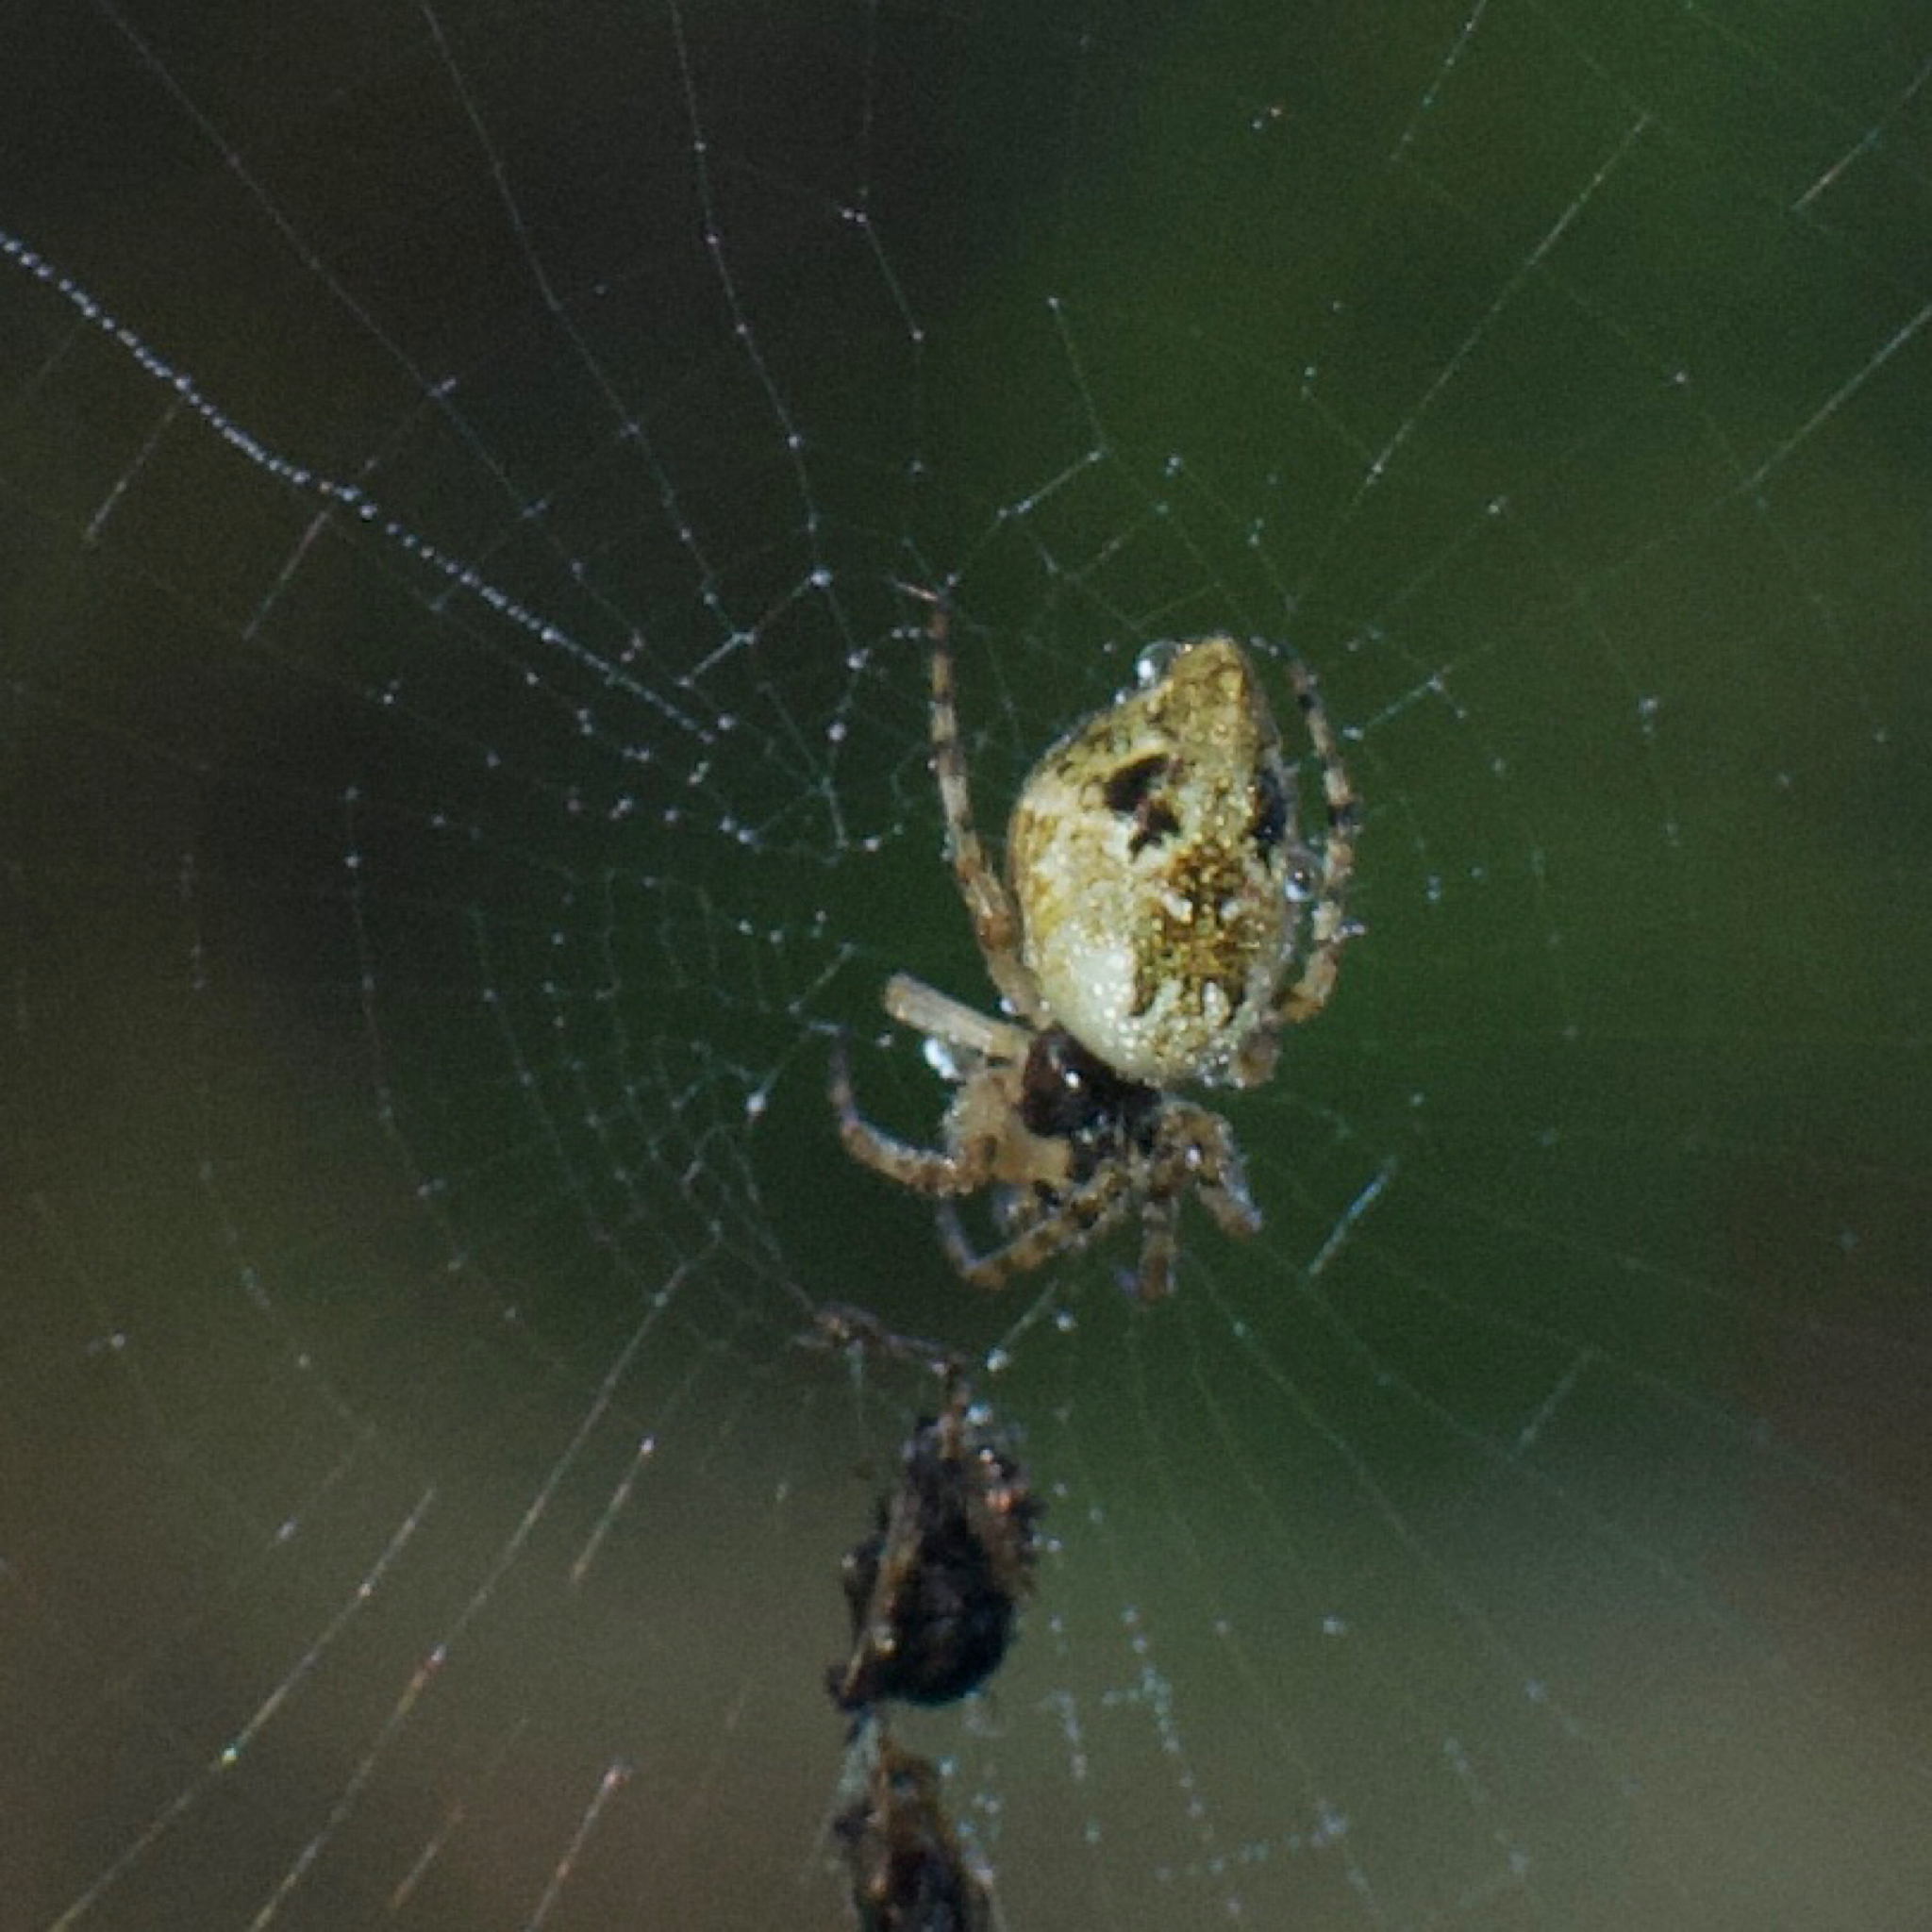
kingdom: Animalia
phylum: Arthropoda
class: Arachnida
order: Araneae
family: Araneidae
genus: Cyclosa
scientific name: Cyclosa conica
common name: Conical trashline orbweaver
